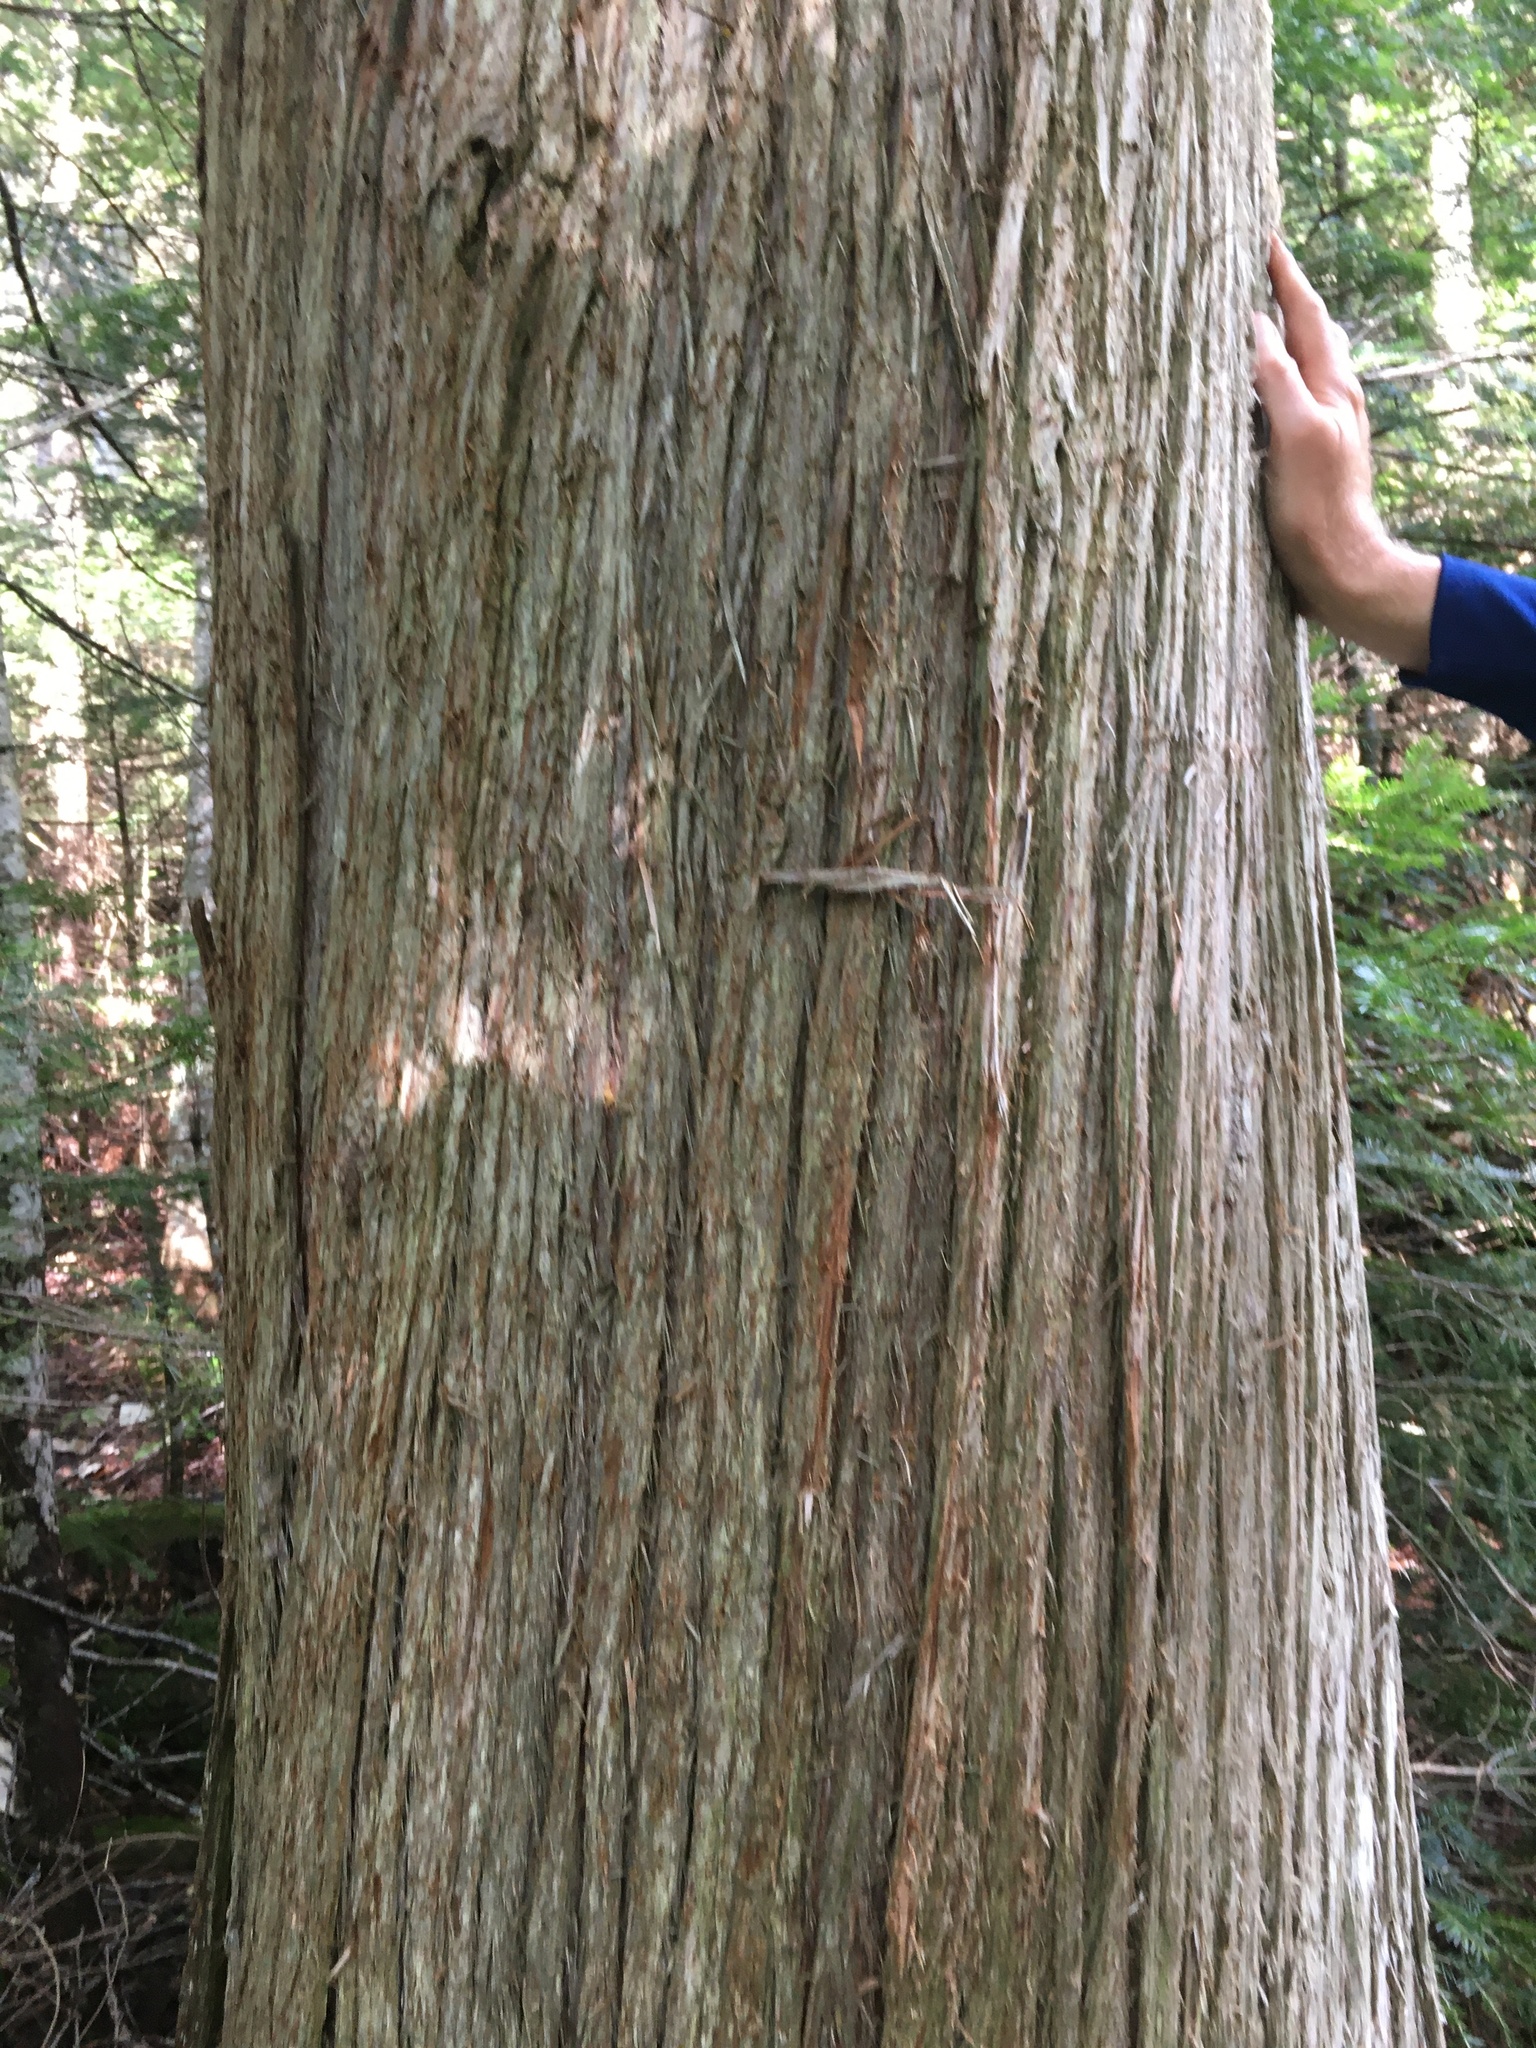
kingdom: Plantae
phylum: Tracheophyta
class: Pinopsida
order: Pinales
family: Cupressaceae
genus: Thuja
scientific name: Thuja occidentalis
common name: Northern white-cedar
